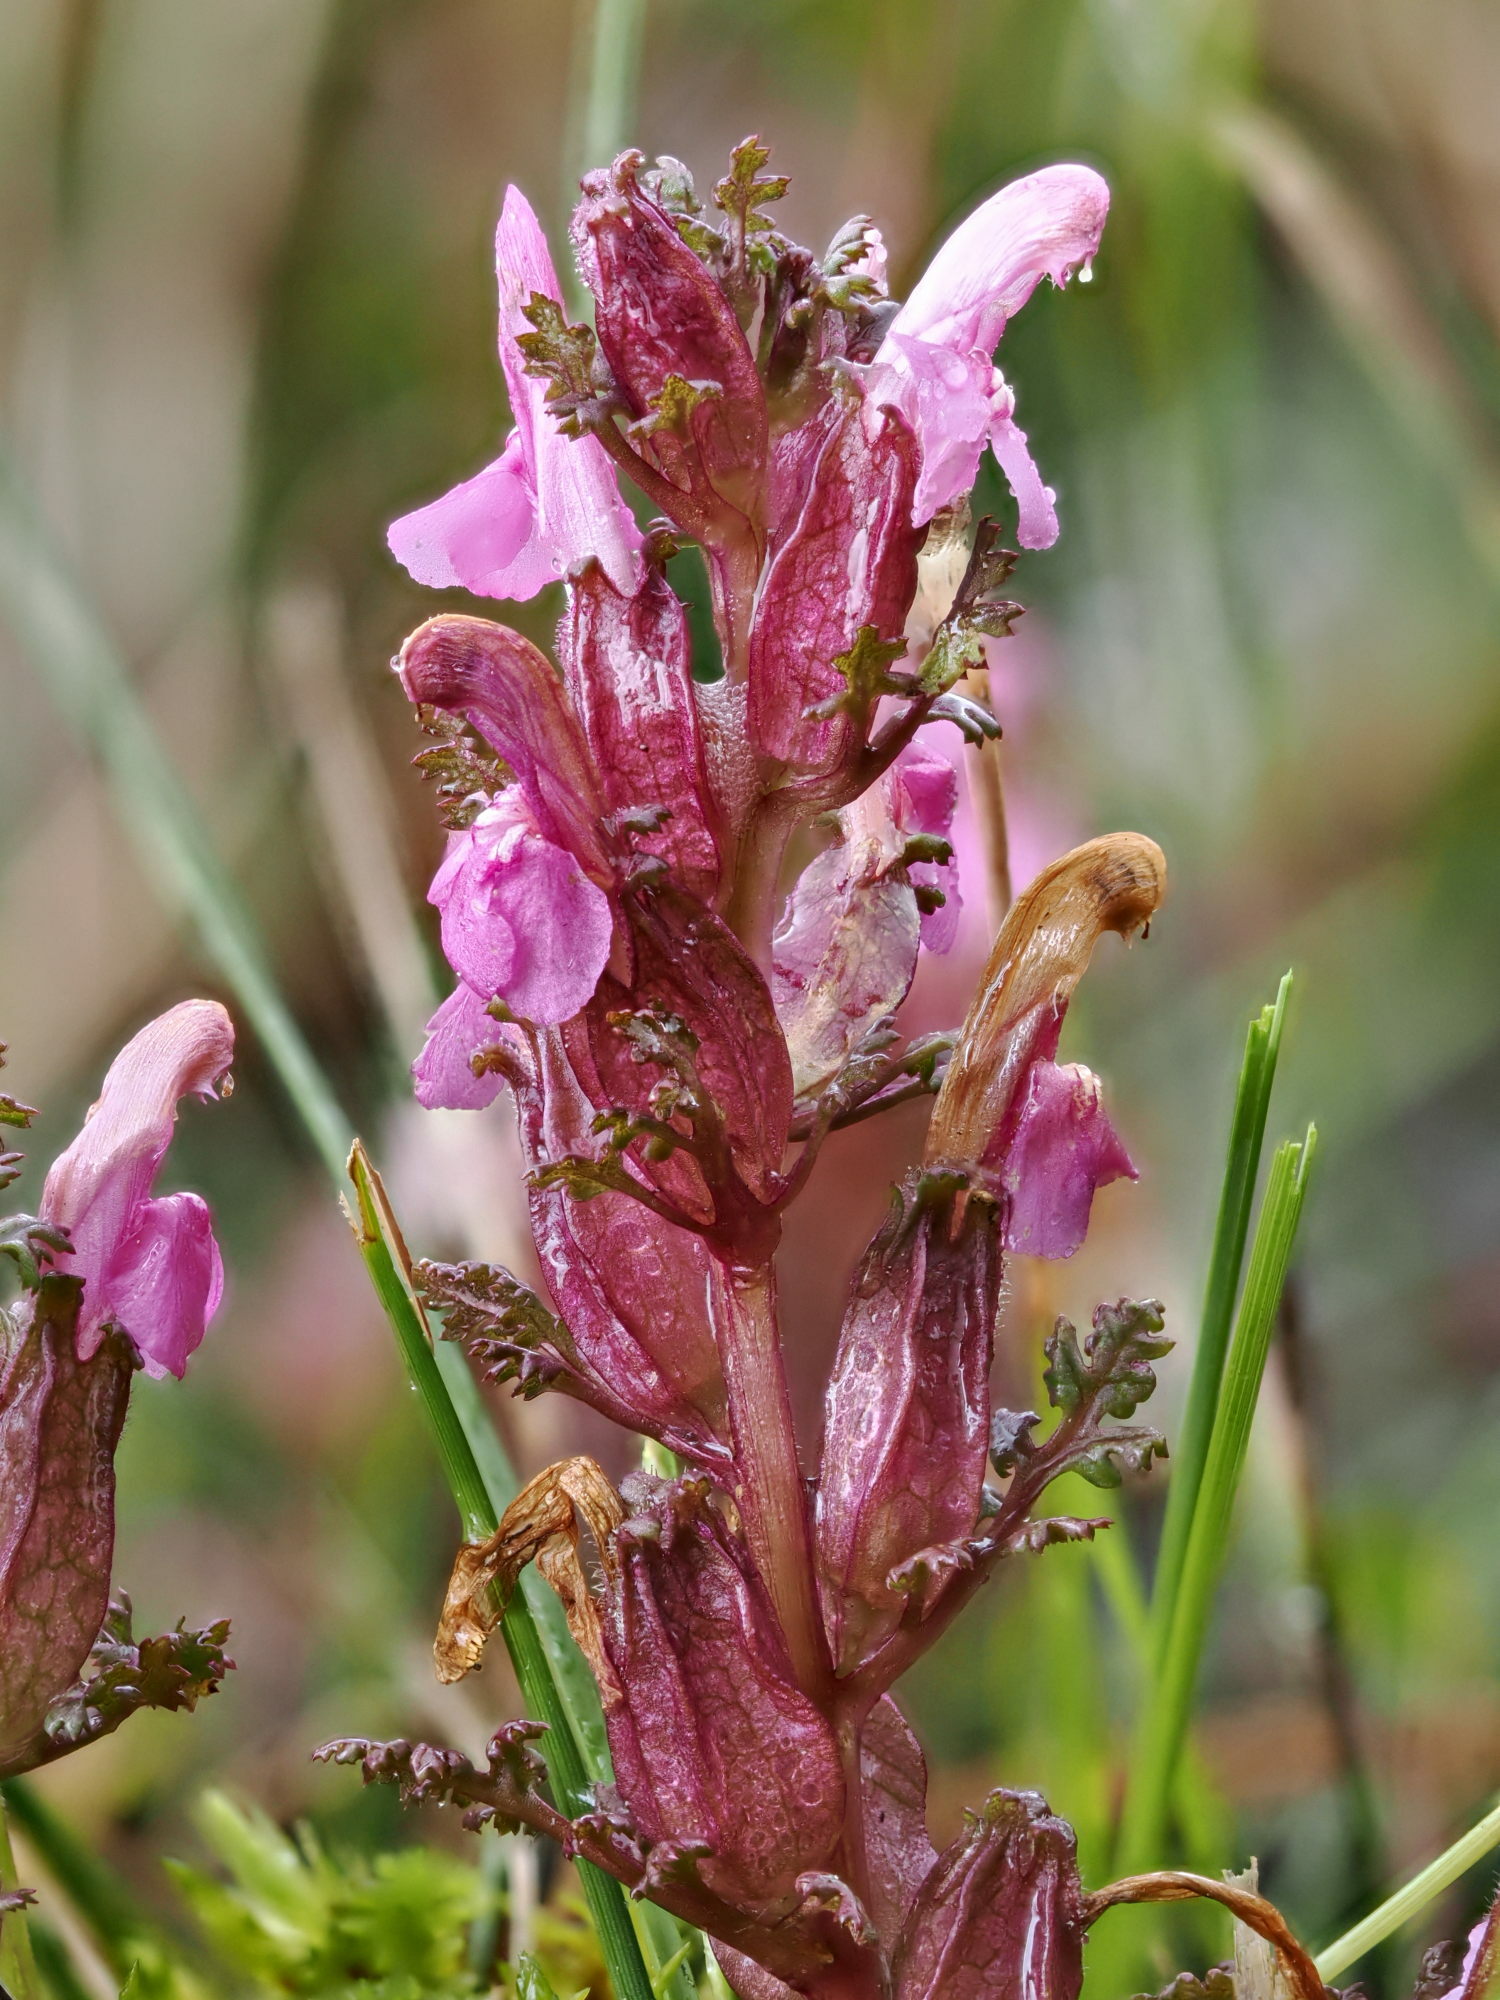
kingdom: Plantae
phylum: Tracheophyta
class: Magnoliopsida
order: Lamiales
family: Orobanchaceae
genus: Pedicularis
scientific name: Pedicularis sylvatica
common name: Lousewort
